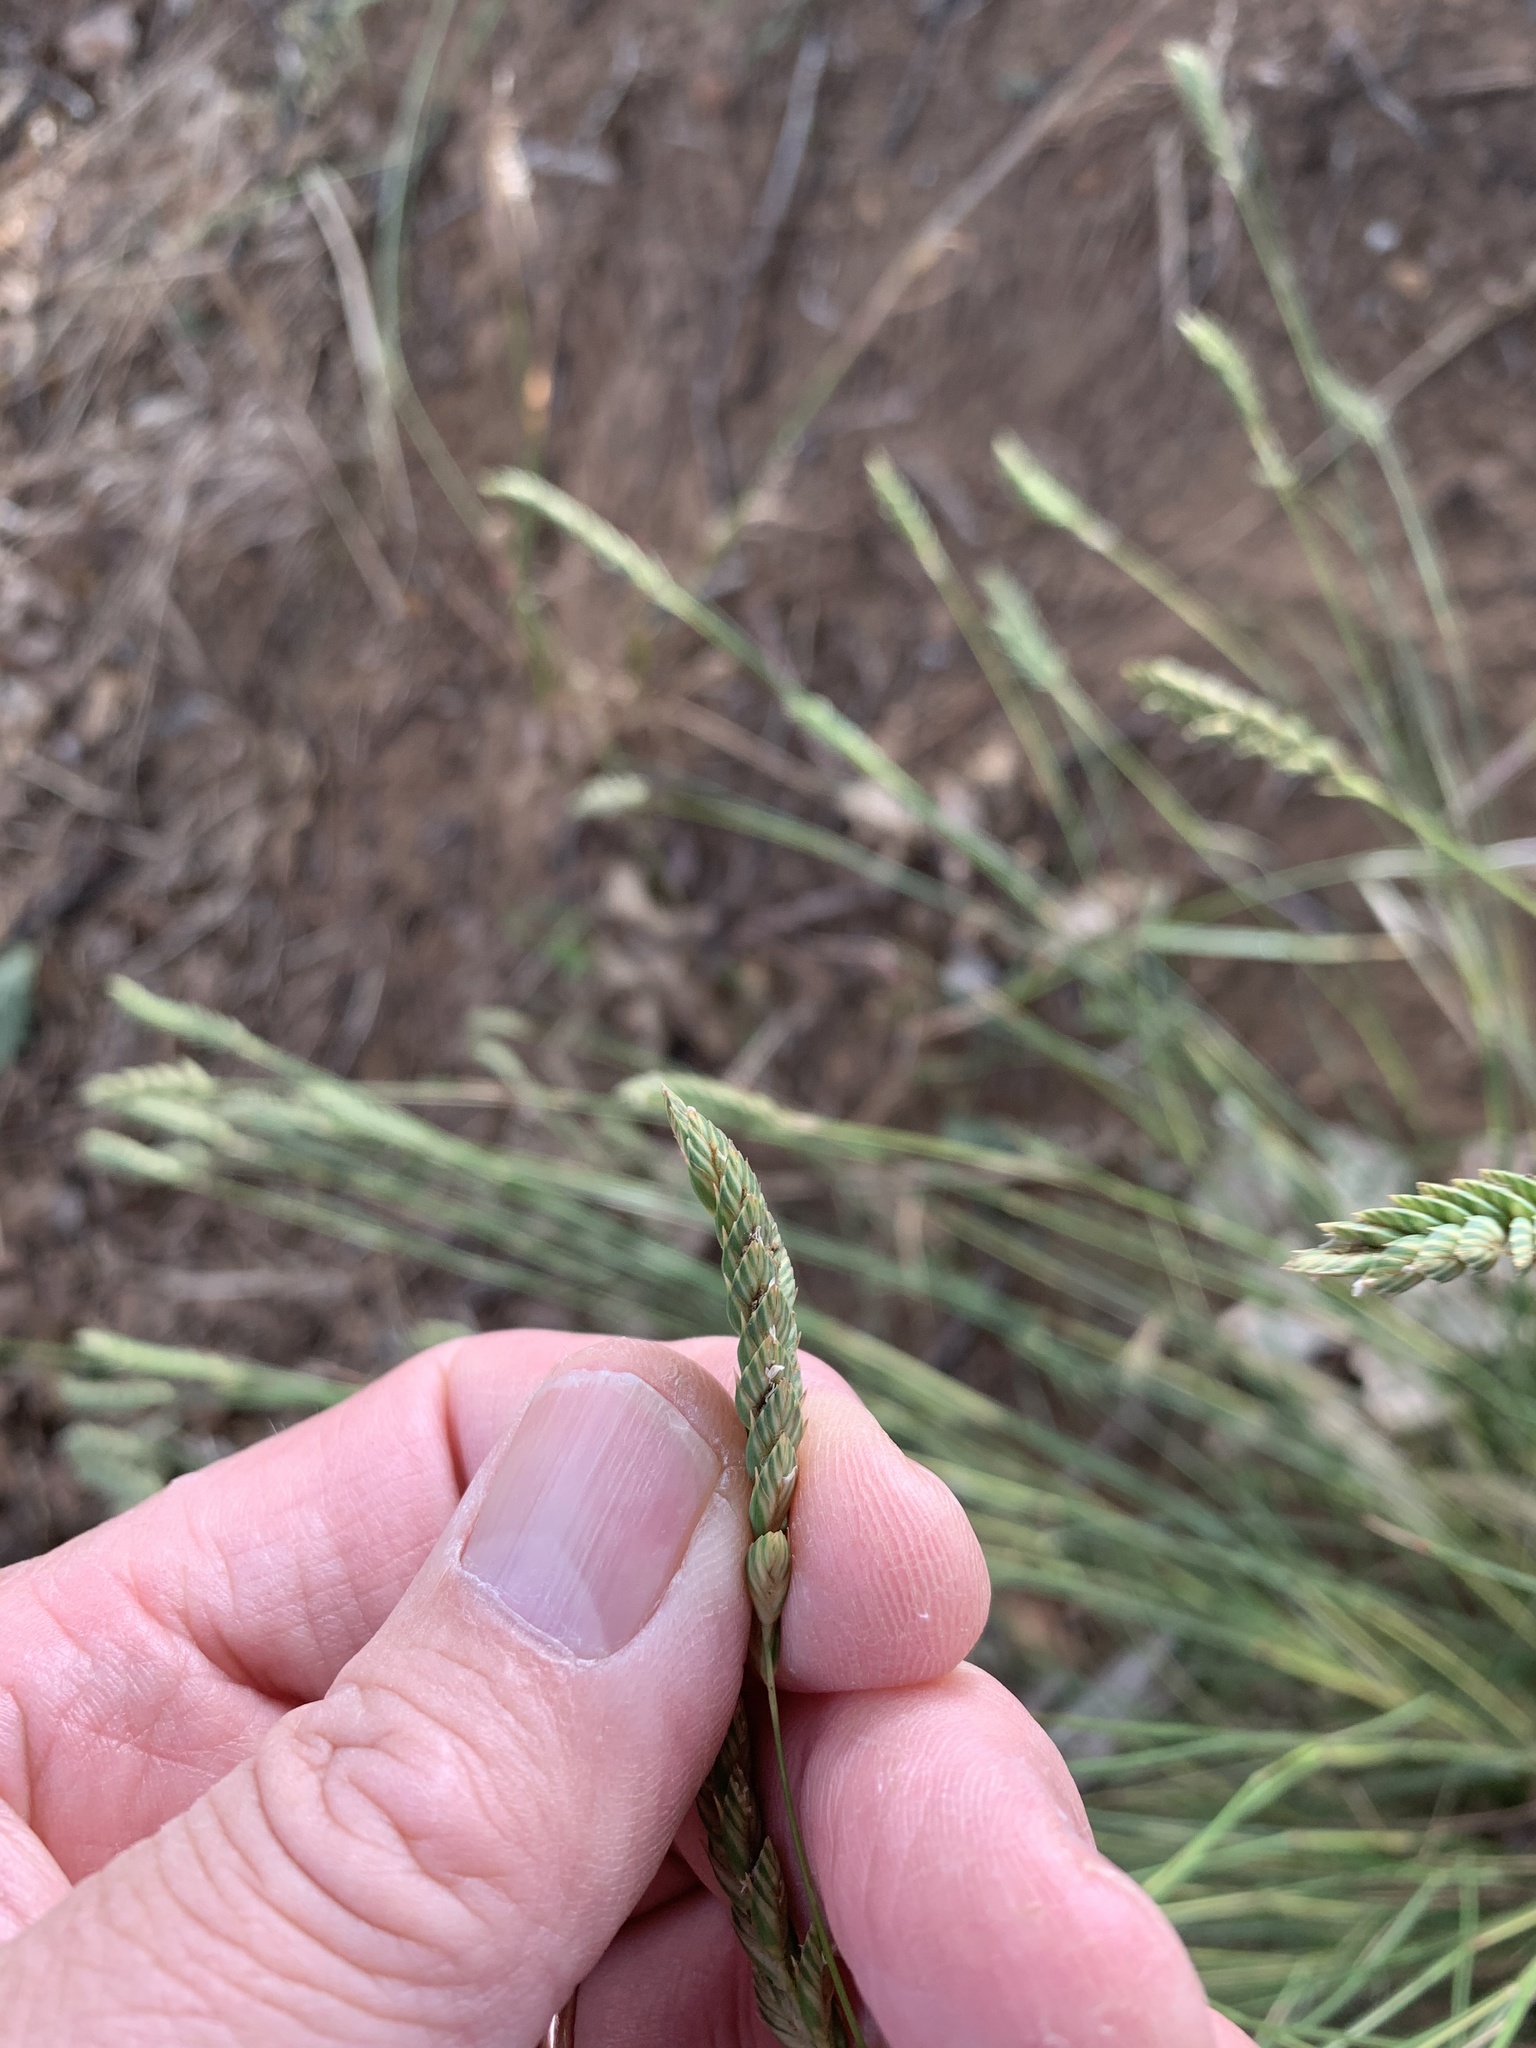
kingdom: Plantae
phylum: Tracheophyta
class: Liliopsida
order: Poales
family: Poaceae
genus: Tribolium
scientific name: Tribolium uniolae
